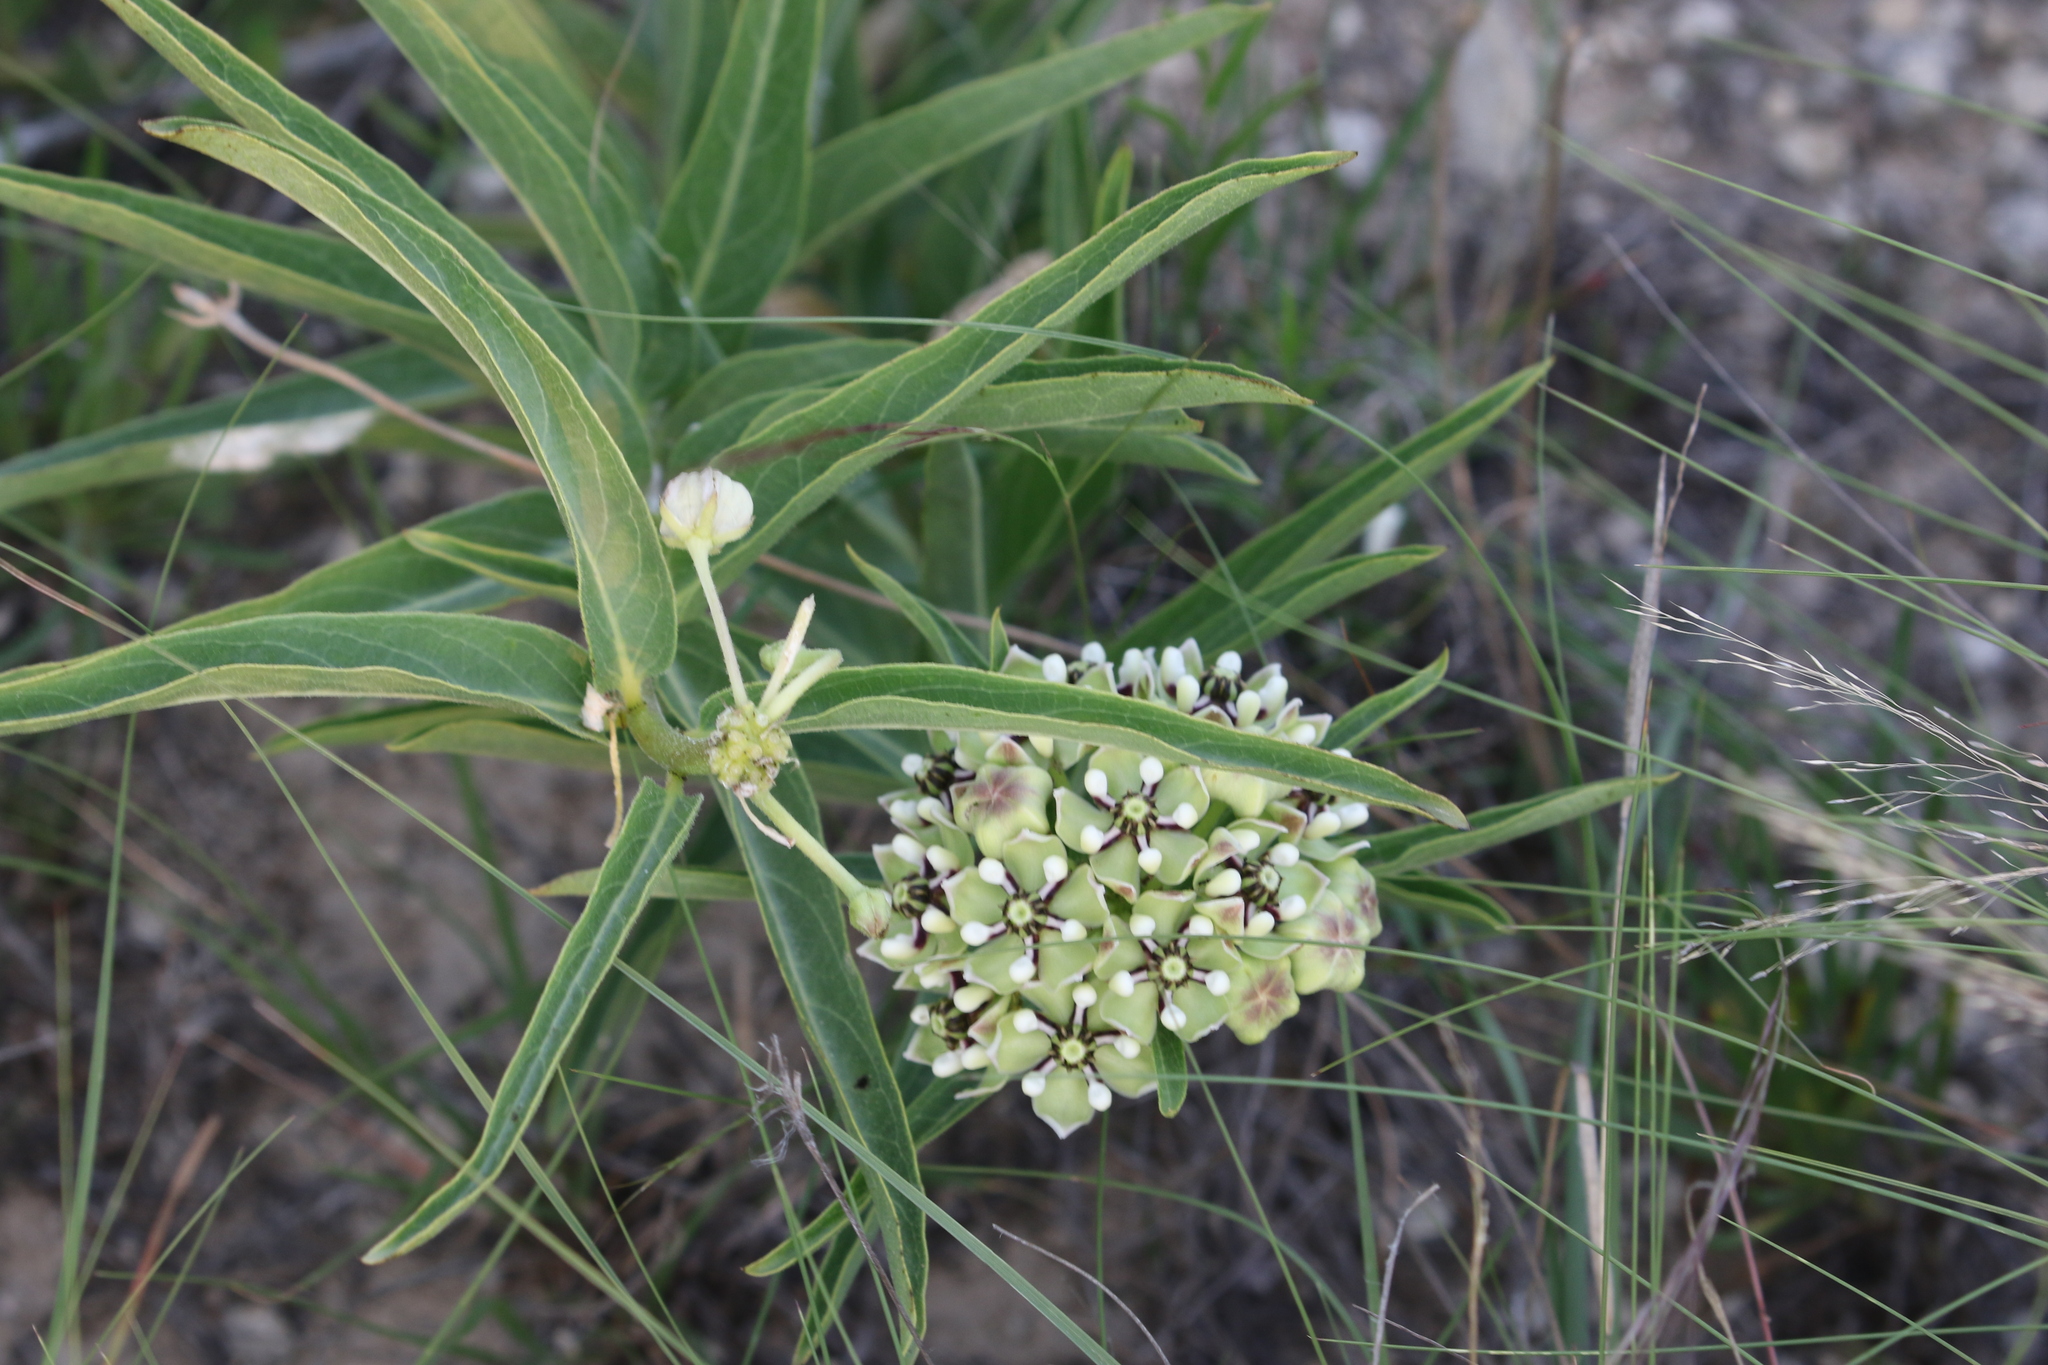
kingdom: Plantae
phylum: Tracheophyta
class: Magnoliopsida
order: Gentianales
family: Apocynaceae
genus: Asclepias
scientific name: Asclepias asperula
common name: Antelope horns
